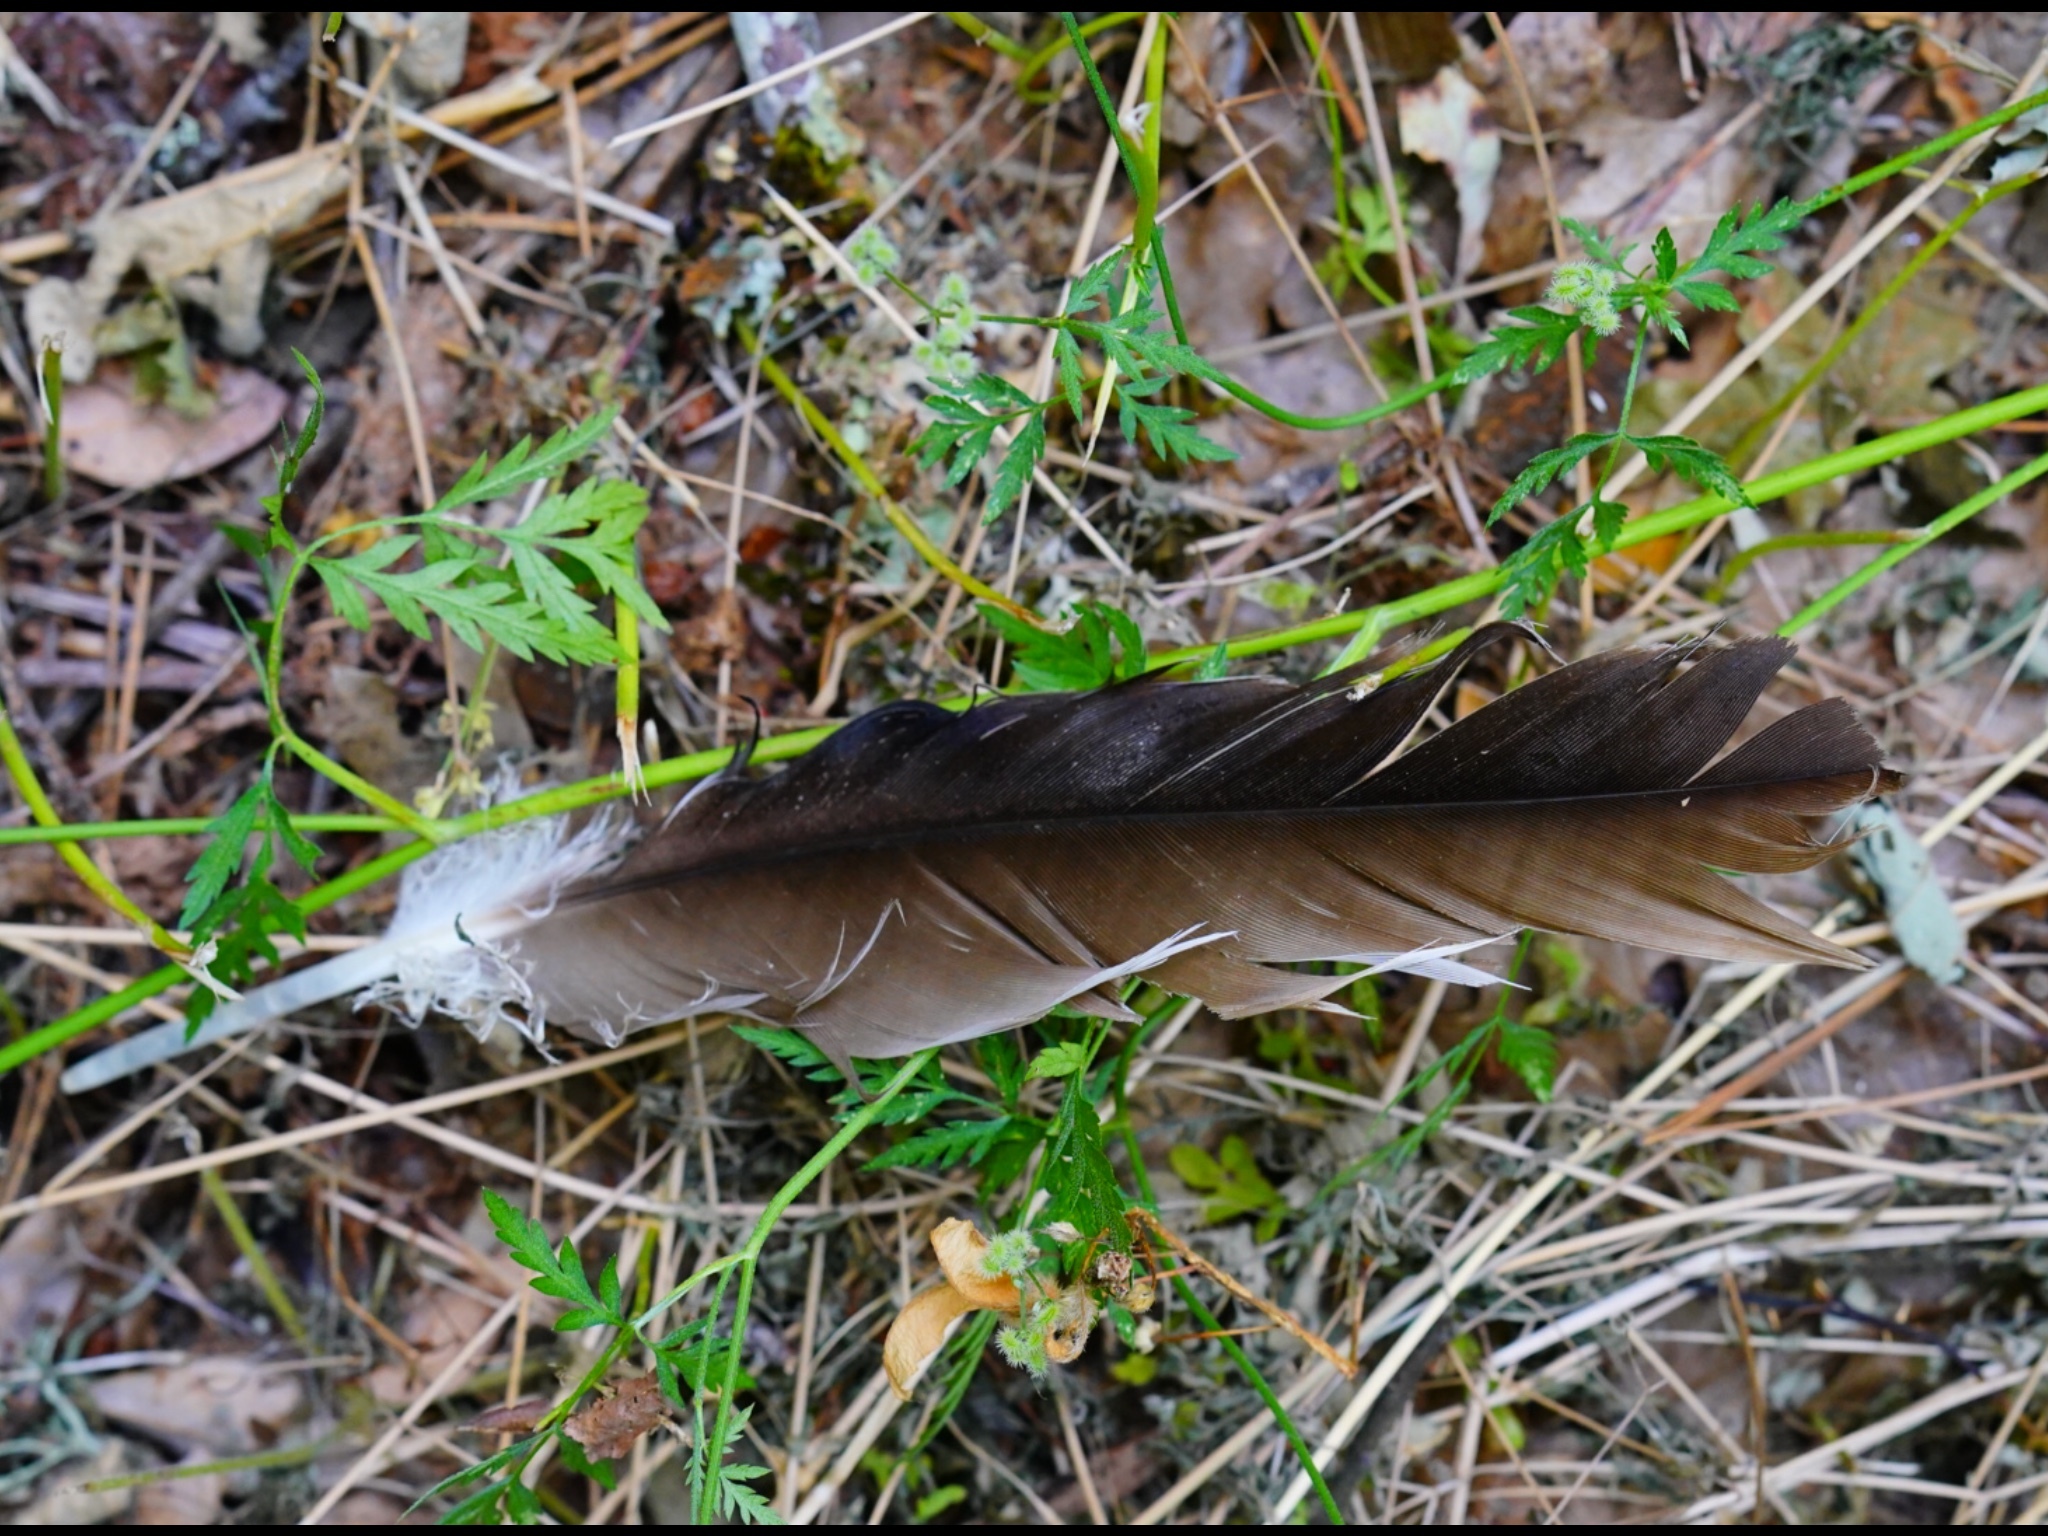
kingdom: Animalia
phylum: Chordata
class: Aves
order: Accipitriformes
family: Cathartidae
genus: Cathartes
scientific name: Cathartes aura
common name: Turkey vulture
